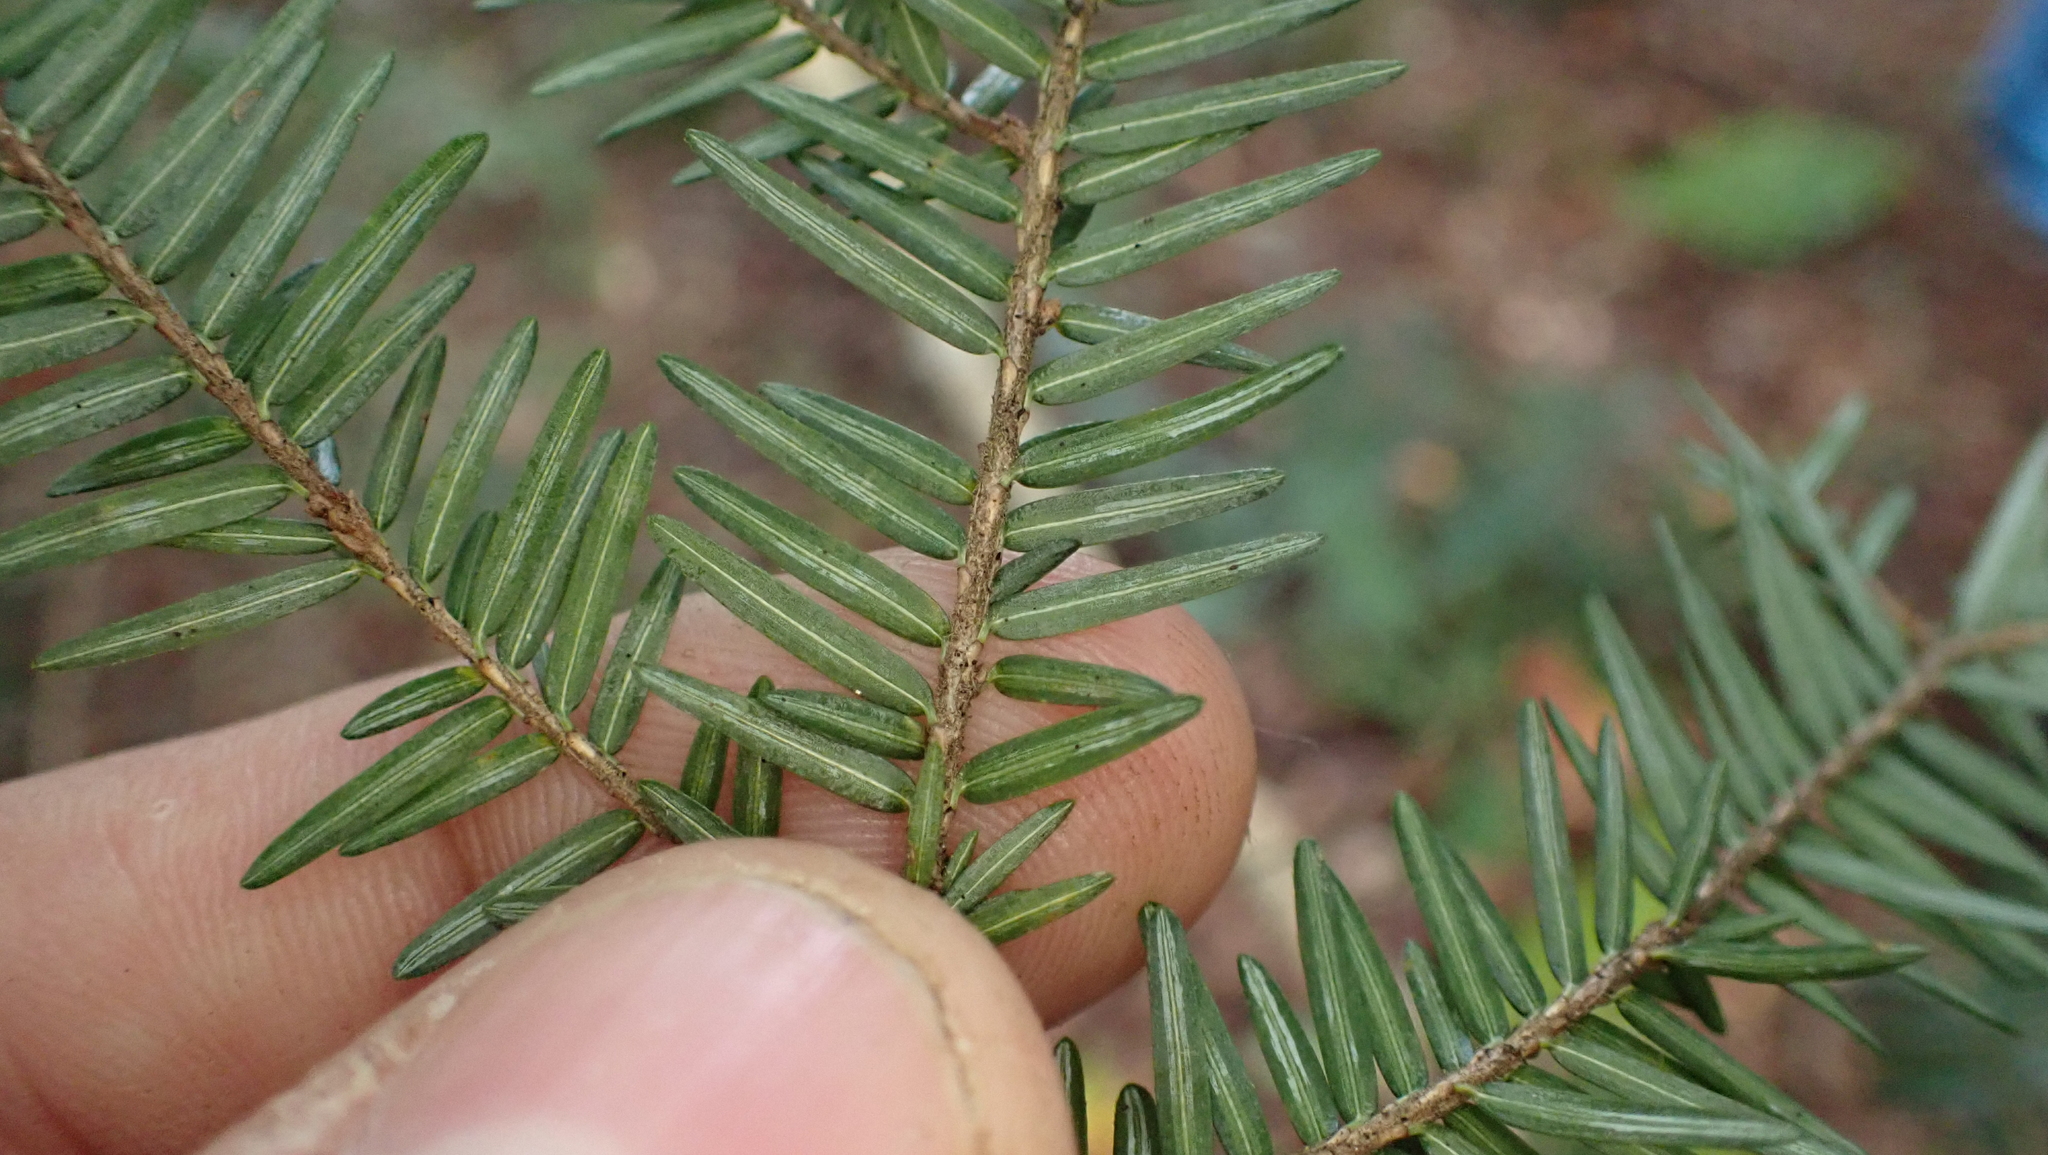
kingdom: Plantae
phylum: Tracheophyta
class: Pinopsida
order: Pinales
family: Pinaceae
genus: Tsuga
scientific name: Tsuga canadensis
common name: Eastern hemlock
